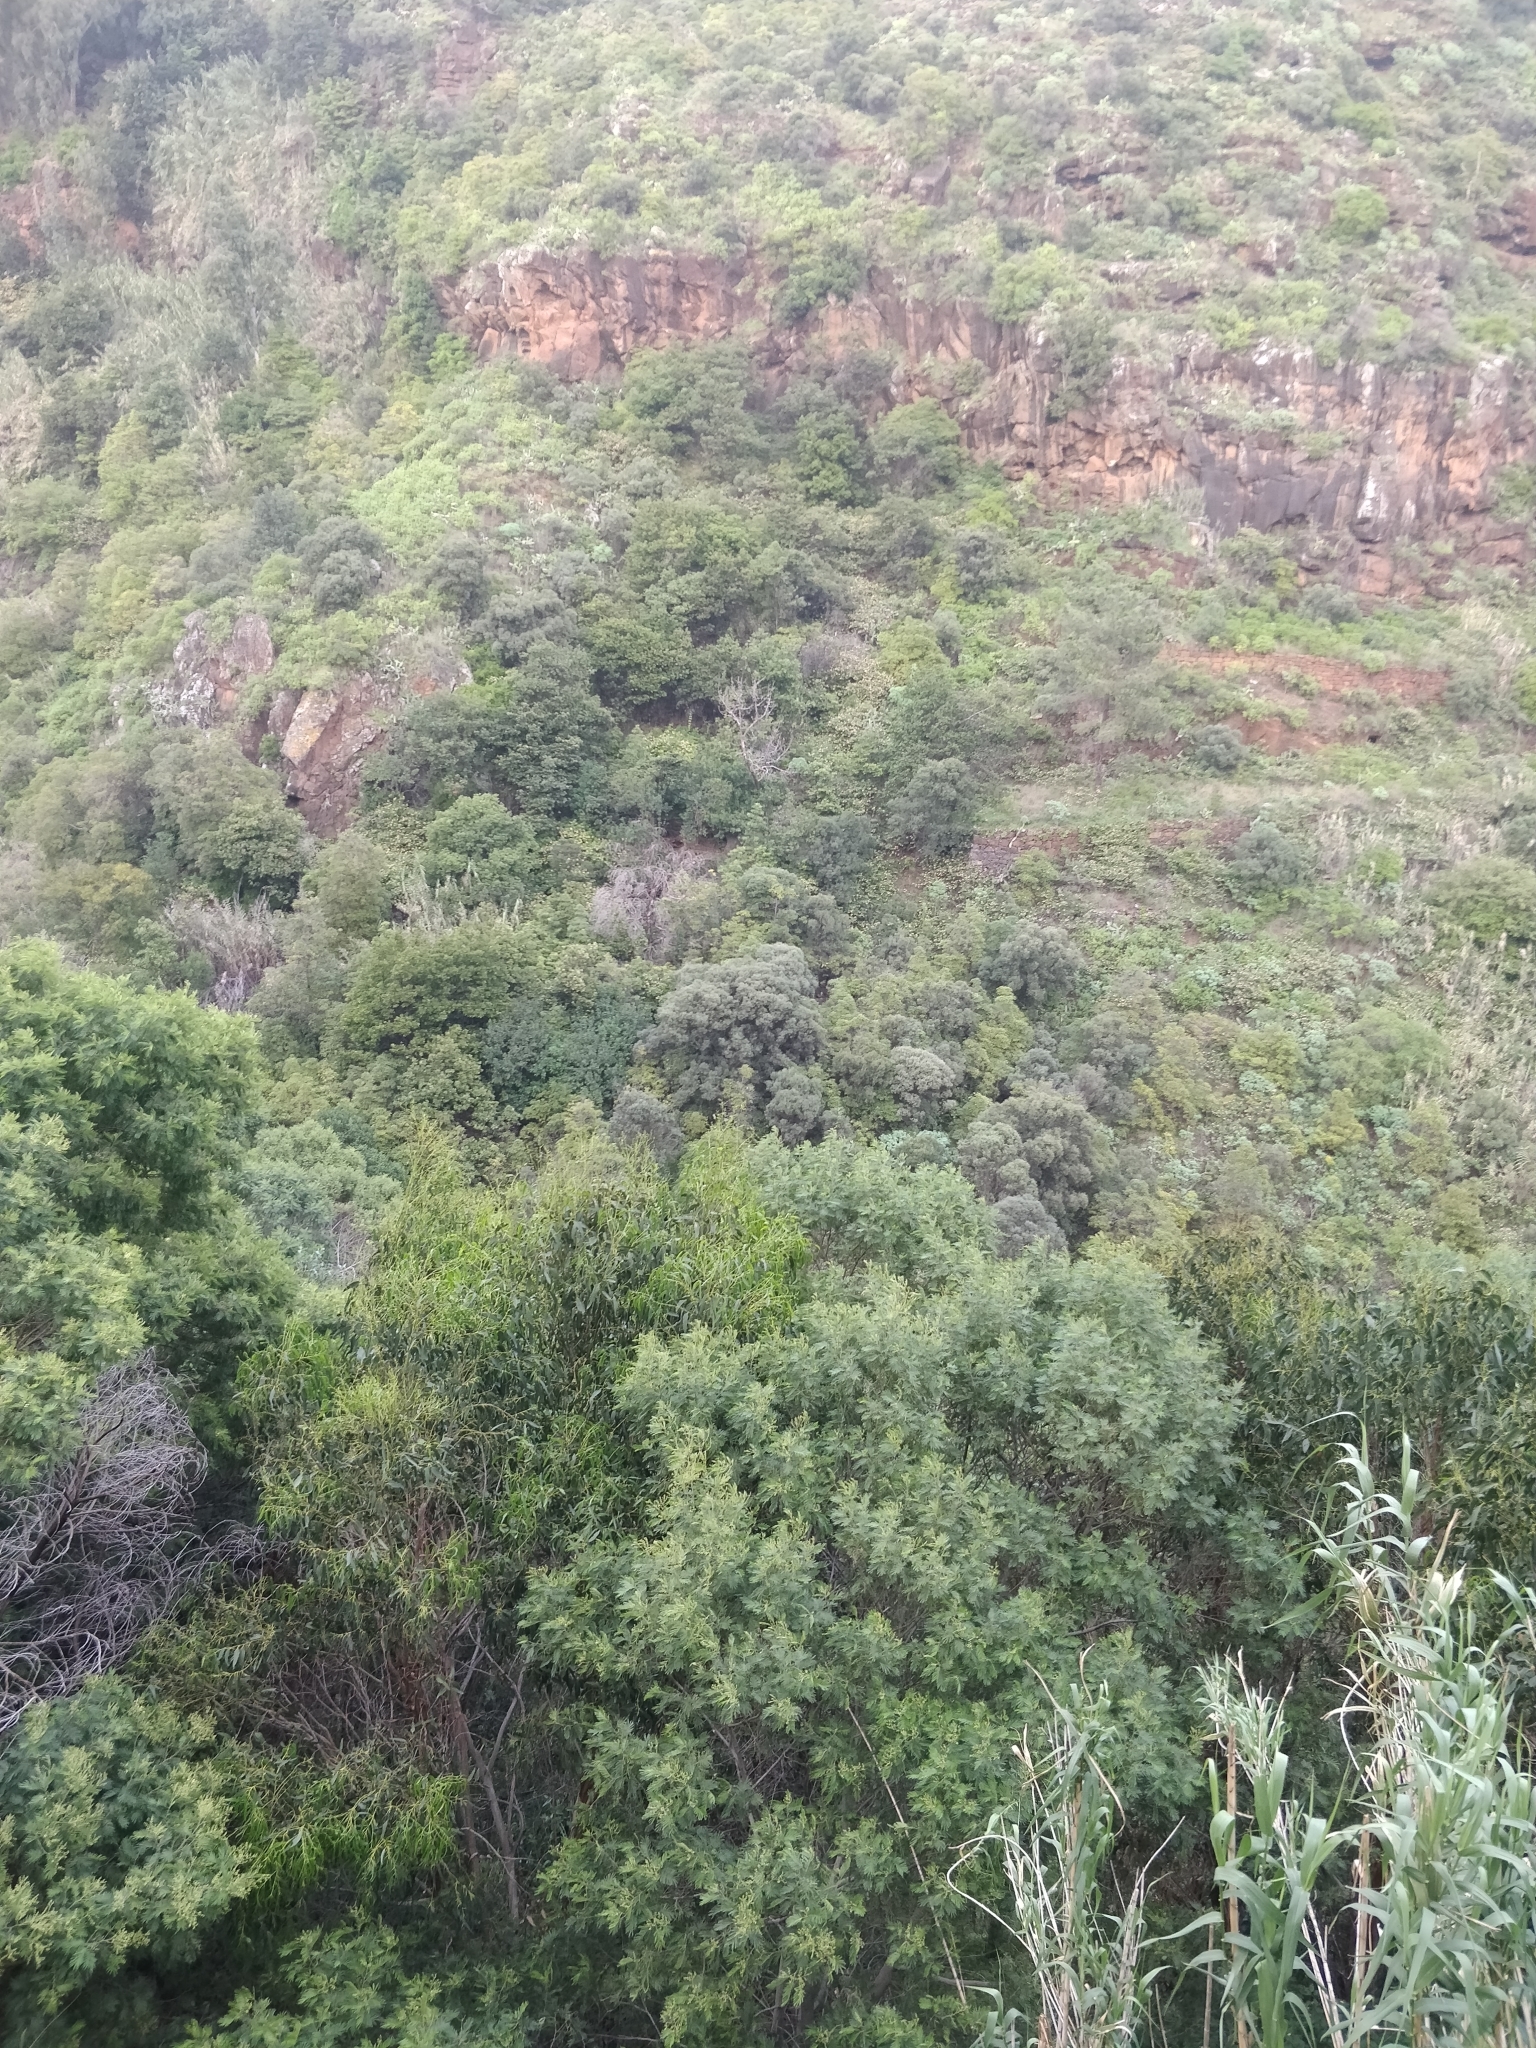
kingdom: Plantae
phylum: Tracheophyta
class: Magnoliopsida
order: Lamiales
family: Oleaceae
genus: Olea
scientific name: Olea europaea
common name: Olive
